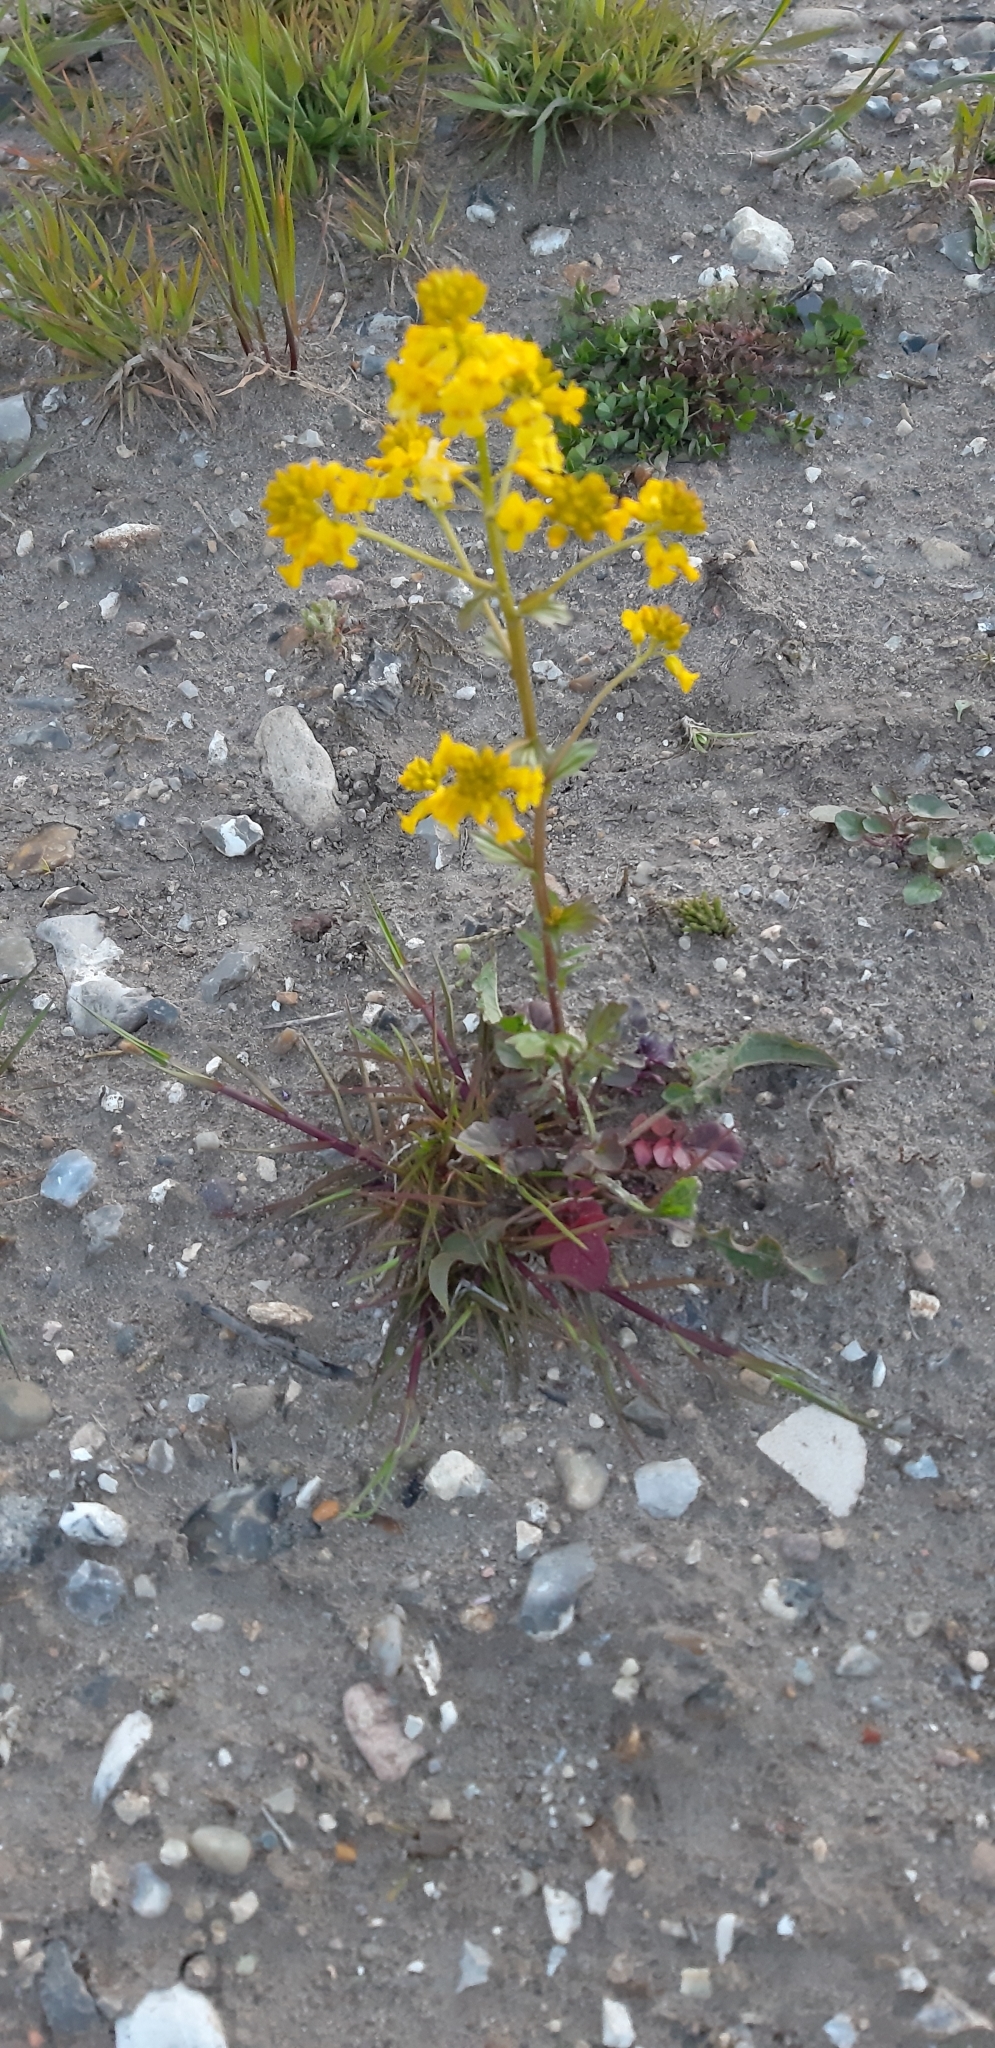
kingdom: Plantae
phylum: Tracheophyta
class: Magnoliopsida
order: Brassicales
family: Brassicaceae
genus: Barbarea
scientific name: Barbarea vulgaris
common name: Cressy-greens
